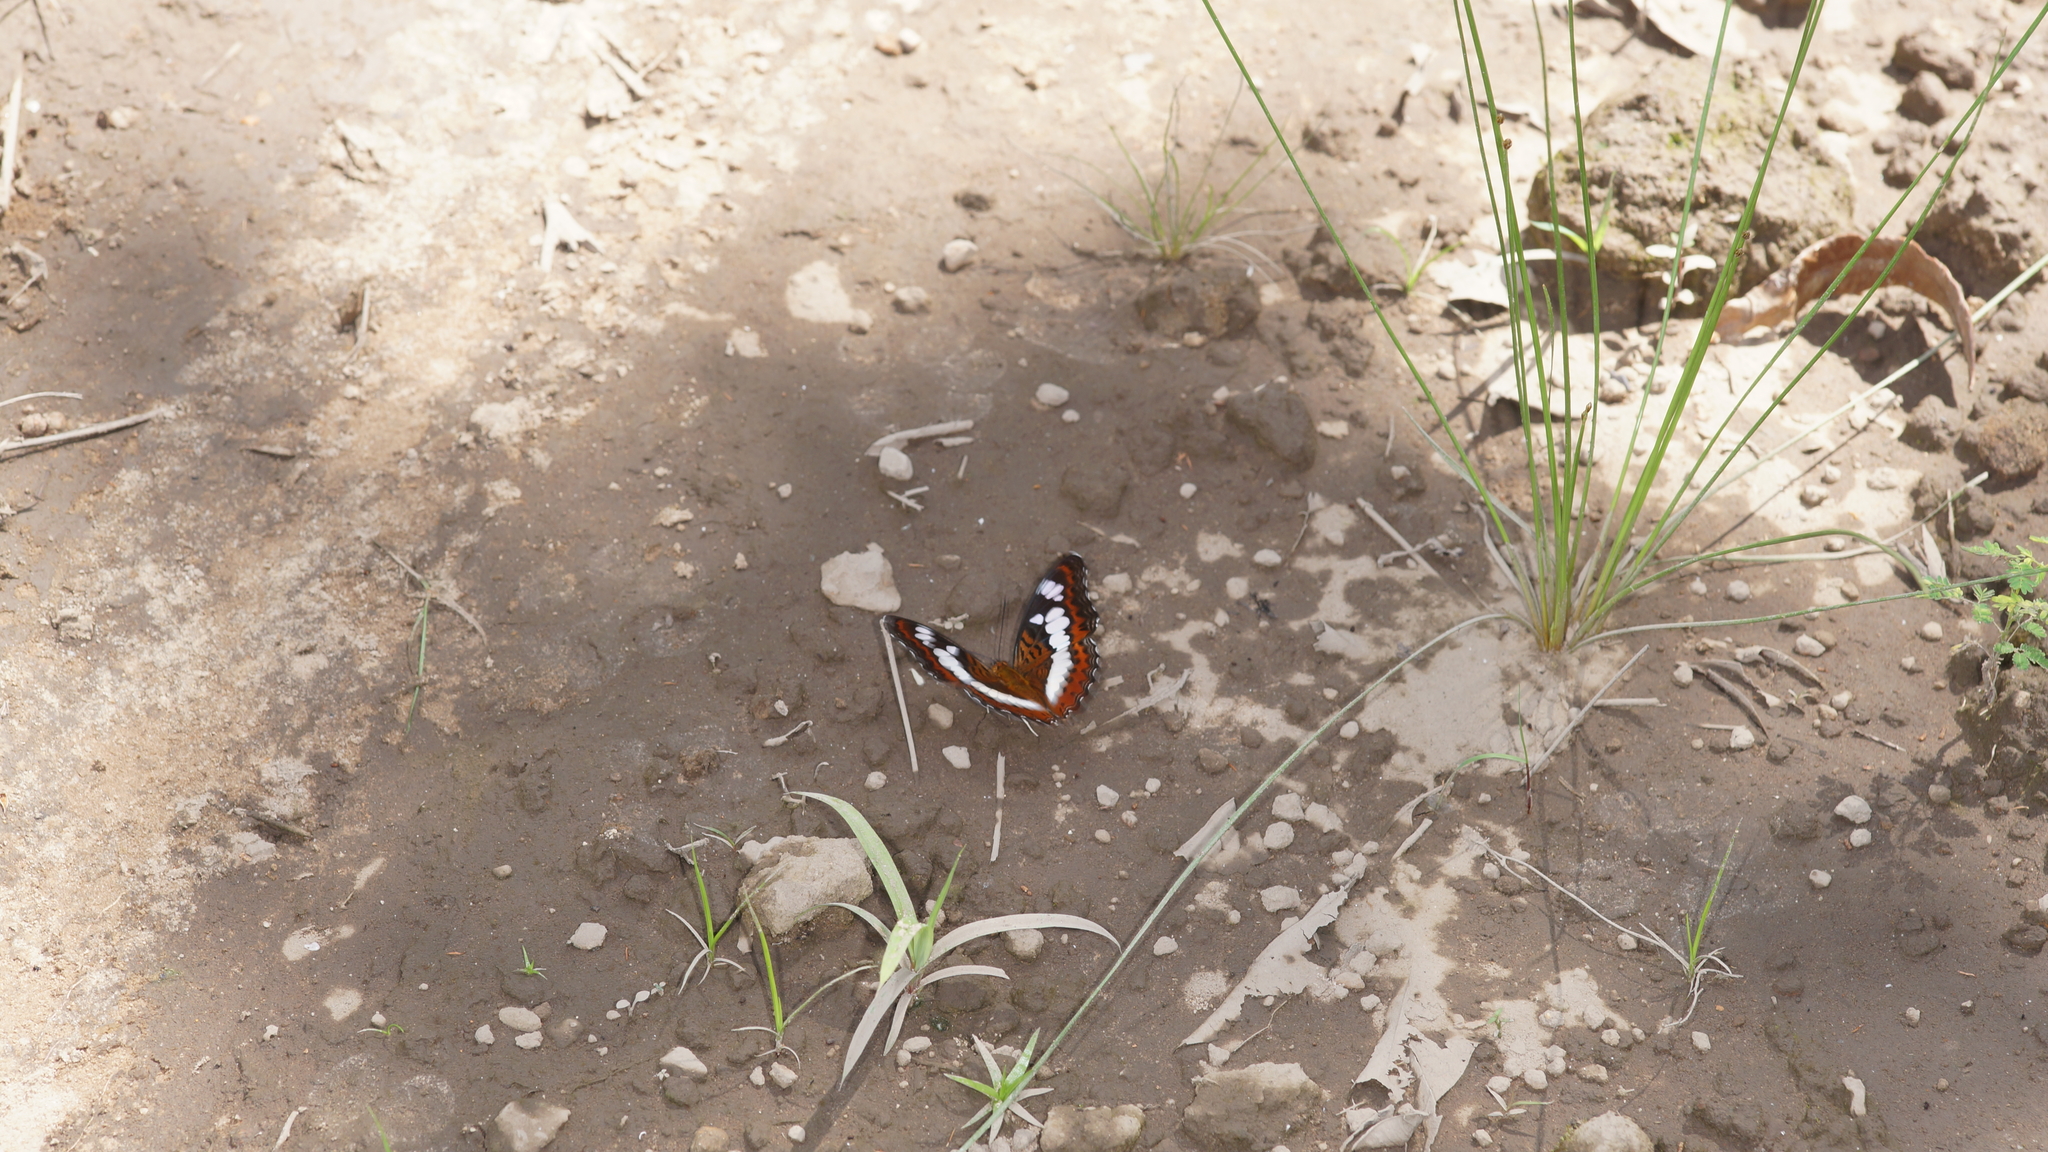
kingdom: Animalia
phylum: Arthropoda
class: Insecta
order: Lepidoptera
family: Nymphalidae
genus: Limenitis
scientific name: Limenitis Moduza procris
